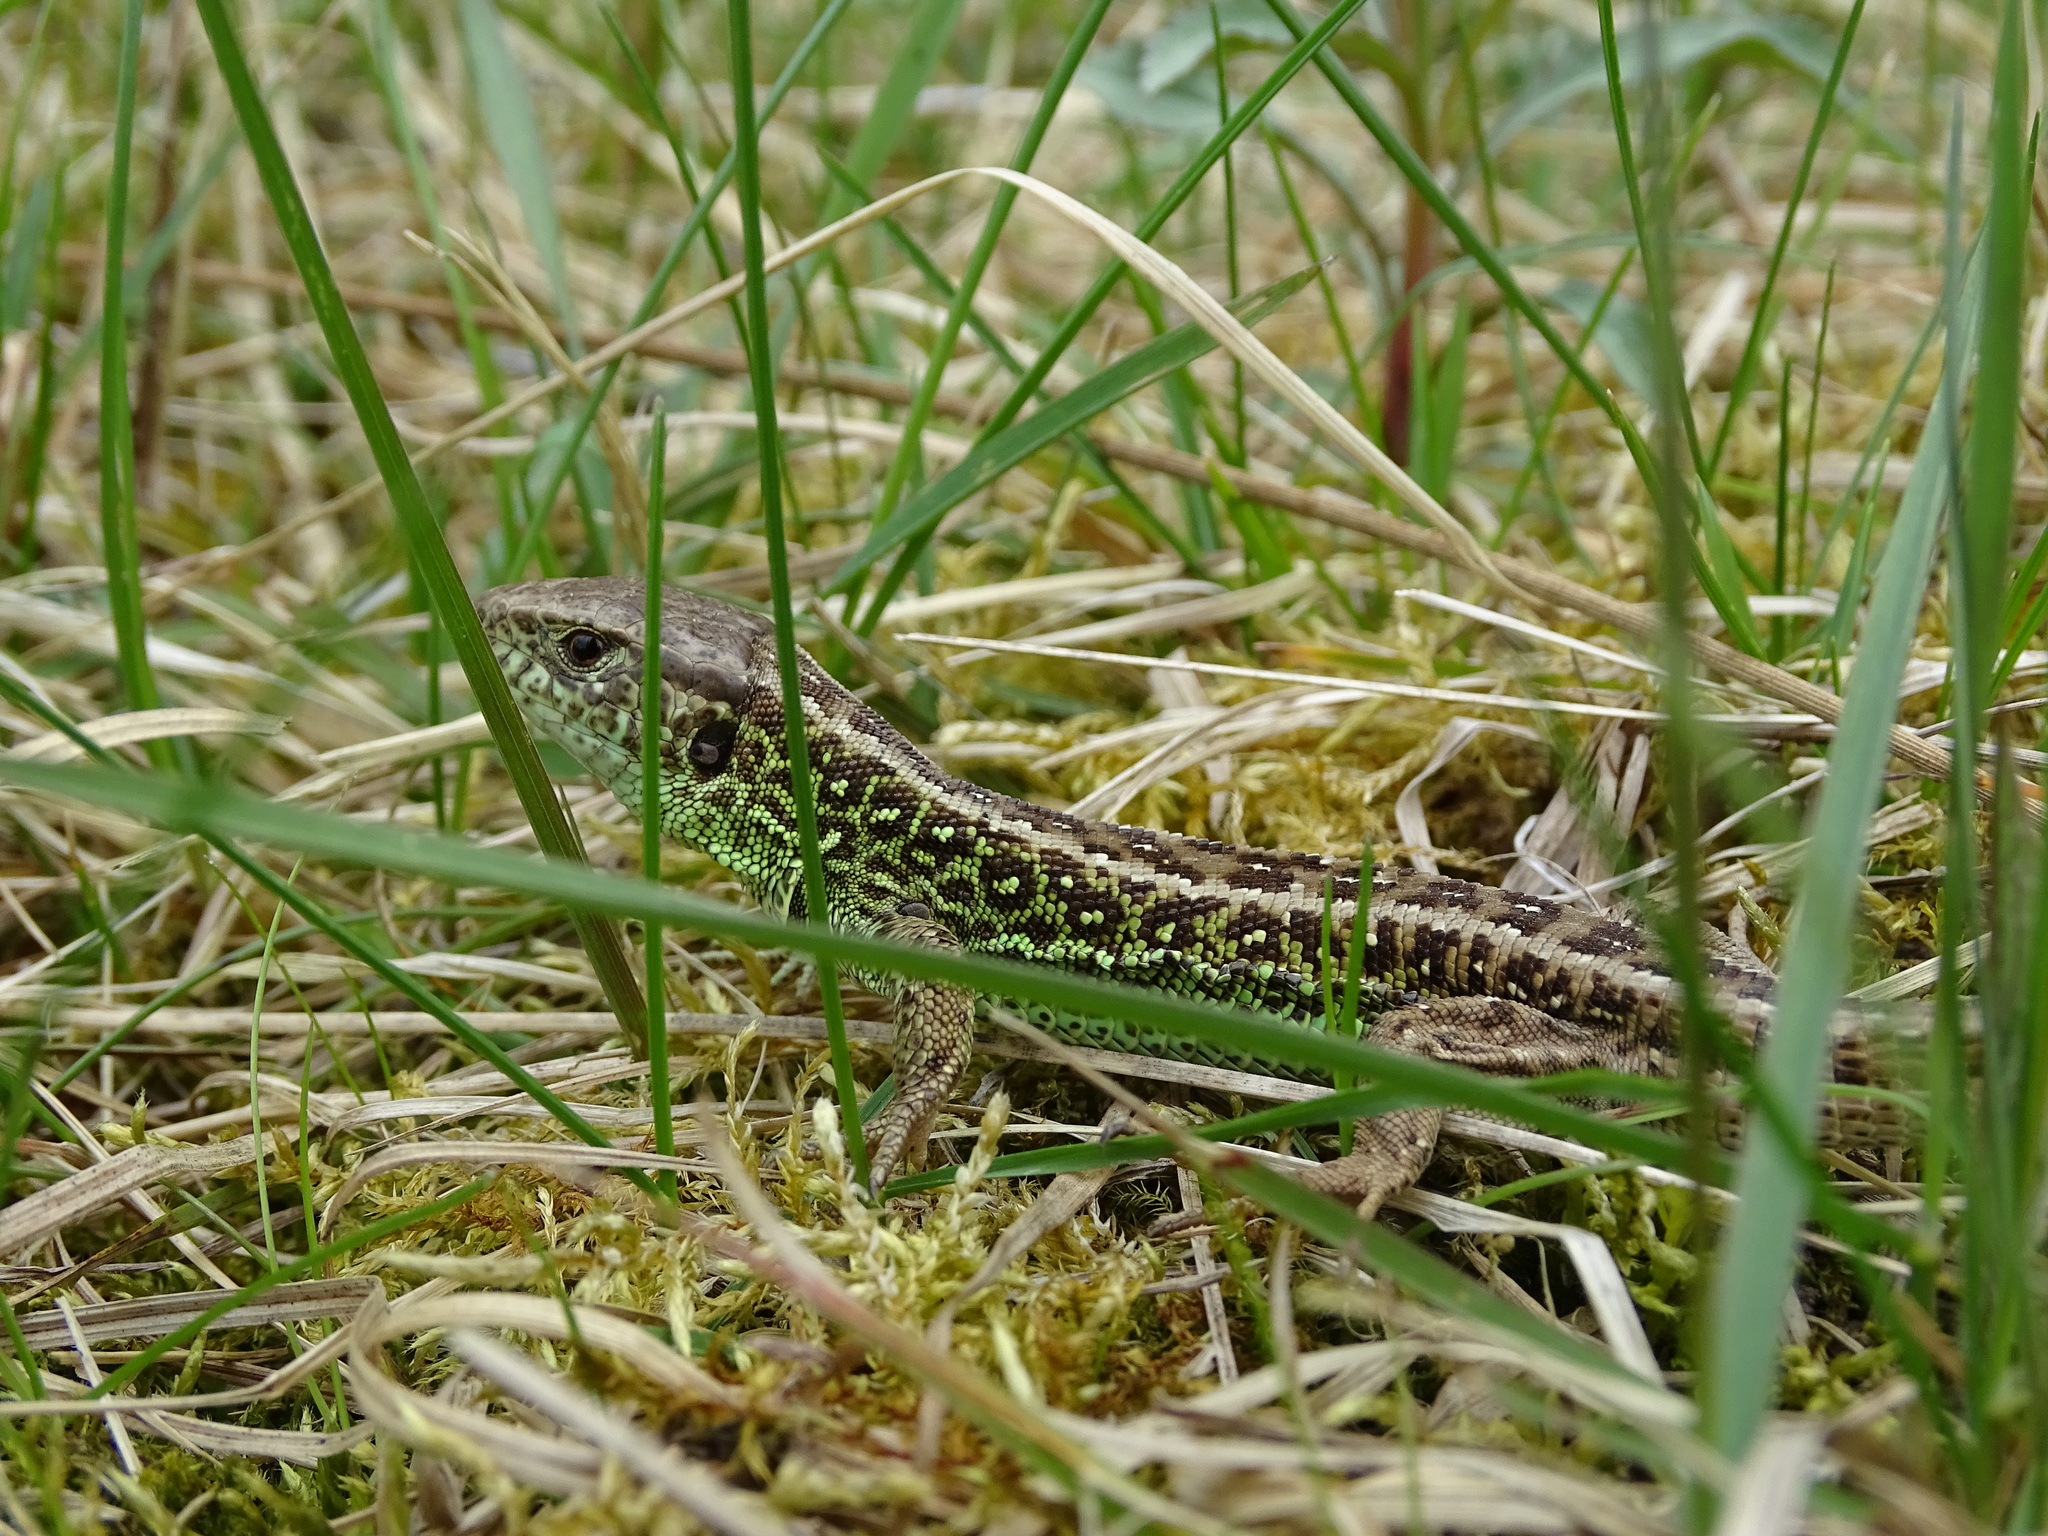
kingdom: Animalia
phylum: Chordata
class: Squamata
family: Lacertidae
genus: Lacerta
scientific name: Lacerta agilis
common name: Sand lizard
